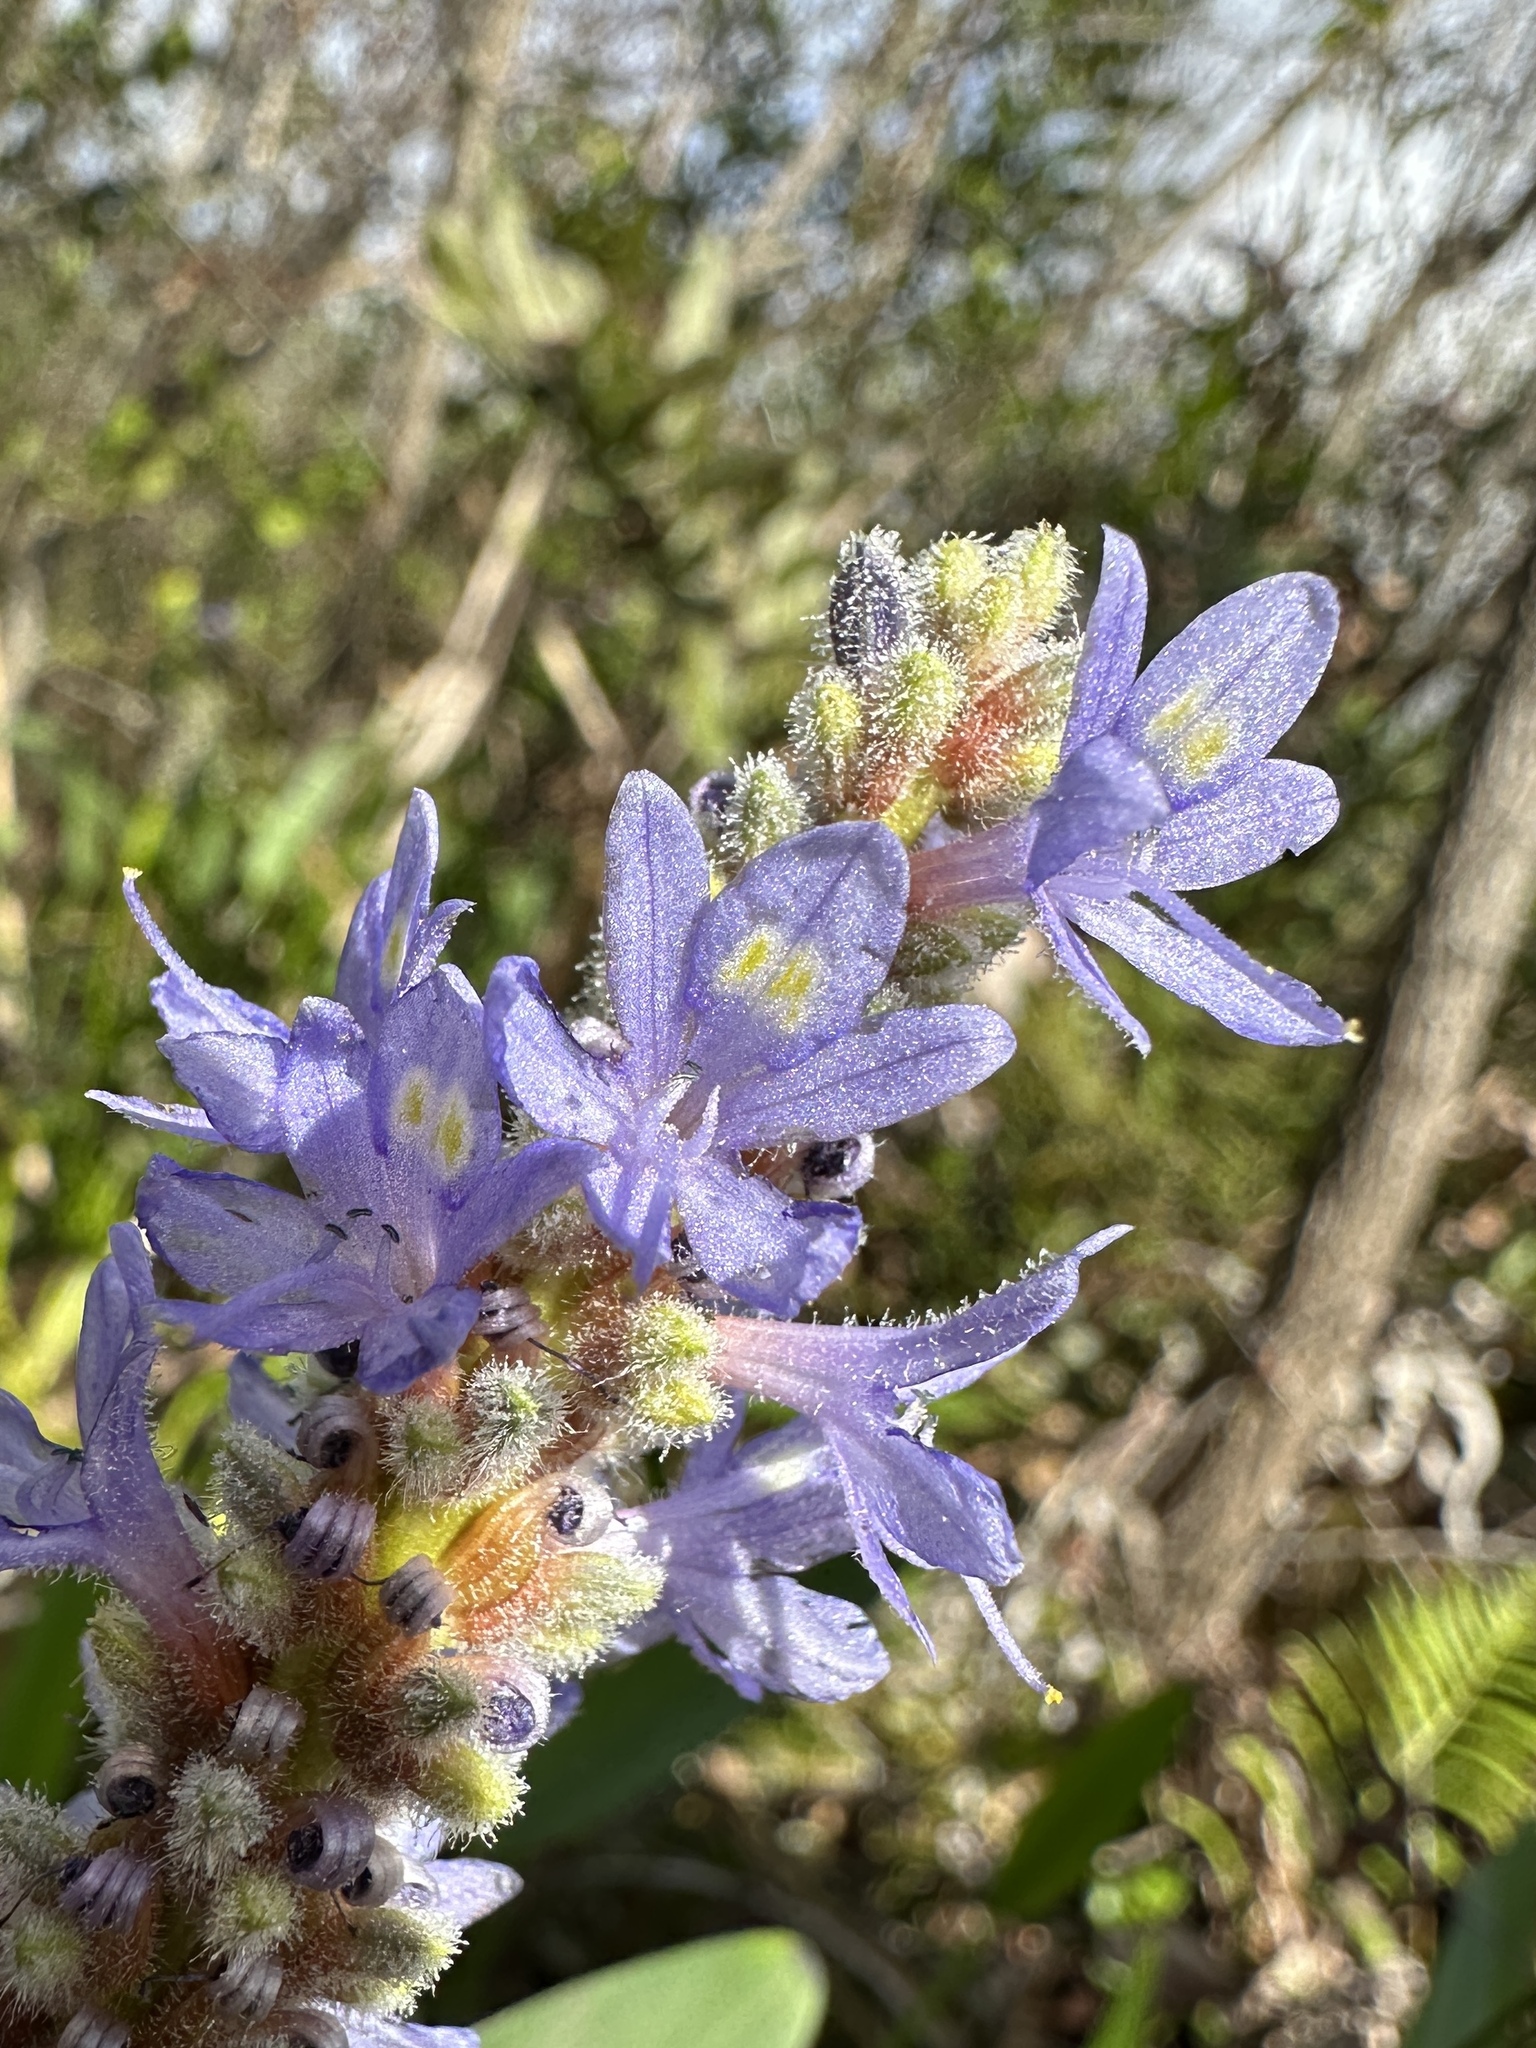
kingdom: Plantae
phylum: Tracheophyta
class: Liliopsida
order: Commelinales
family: Pontederiaceae
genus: Pontederia
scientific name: Pontederia cordata
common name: Pickerelweed
